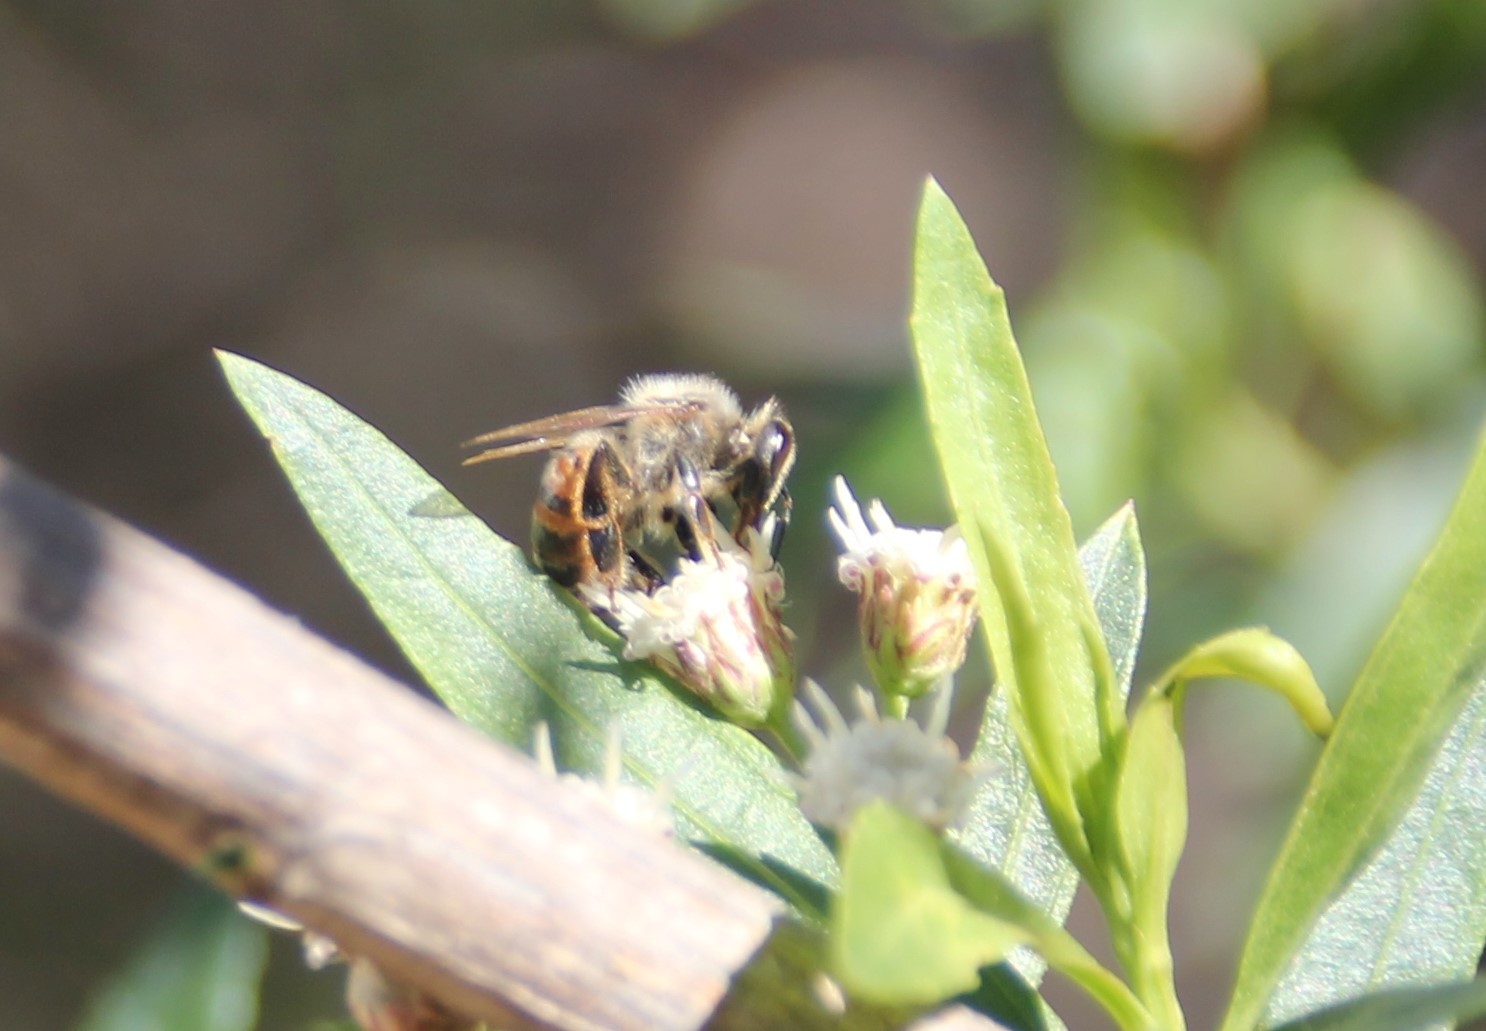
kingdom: Animalia
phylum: Arthropoda
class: Insecta
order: Hymenoptera
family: Apidae
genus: Apis
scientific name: Apis mellifera
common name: Honey bee
